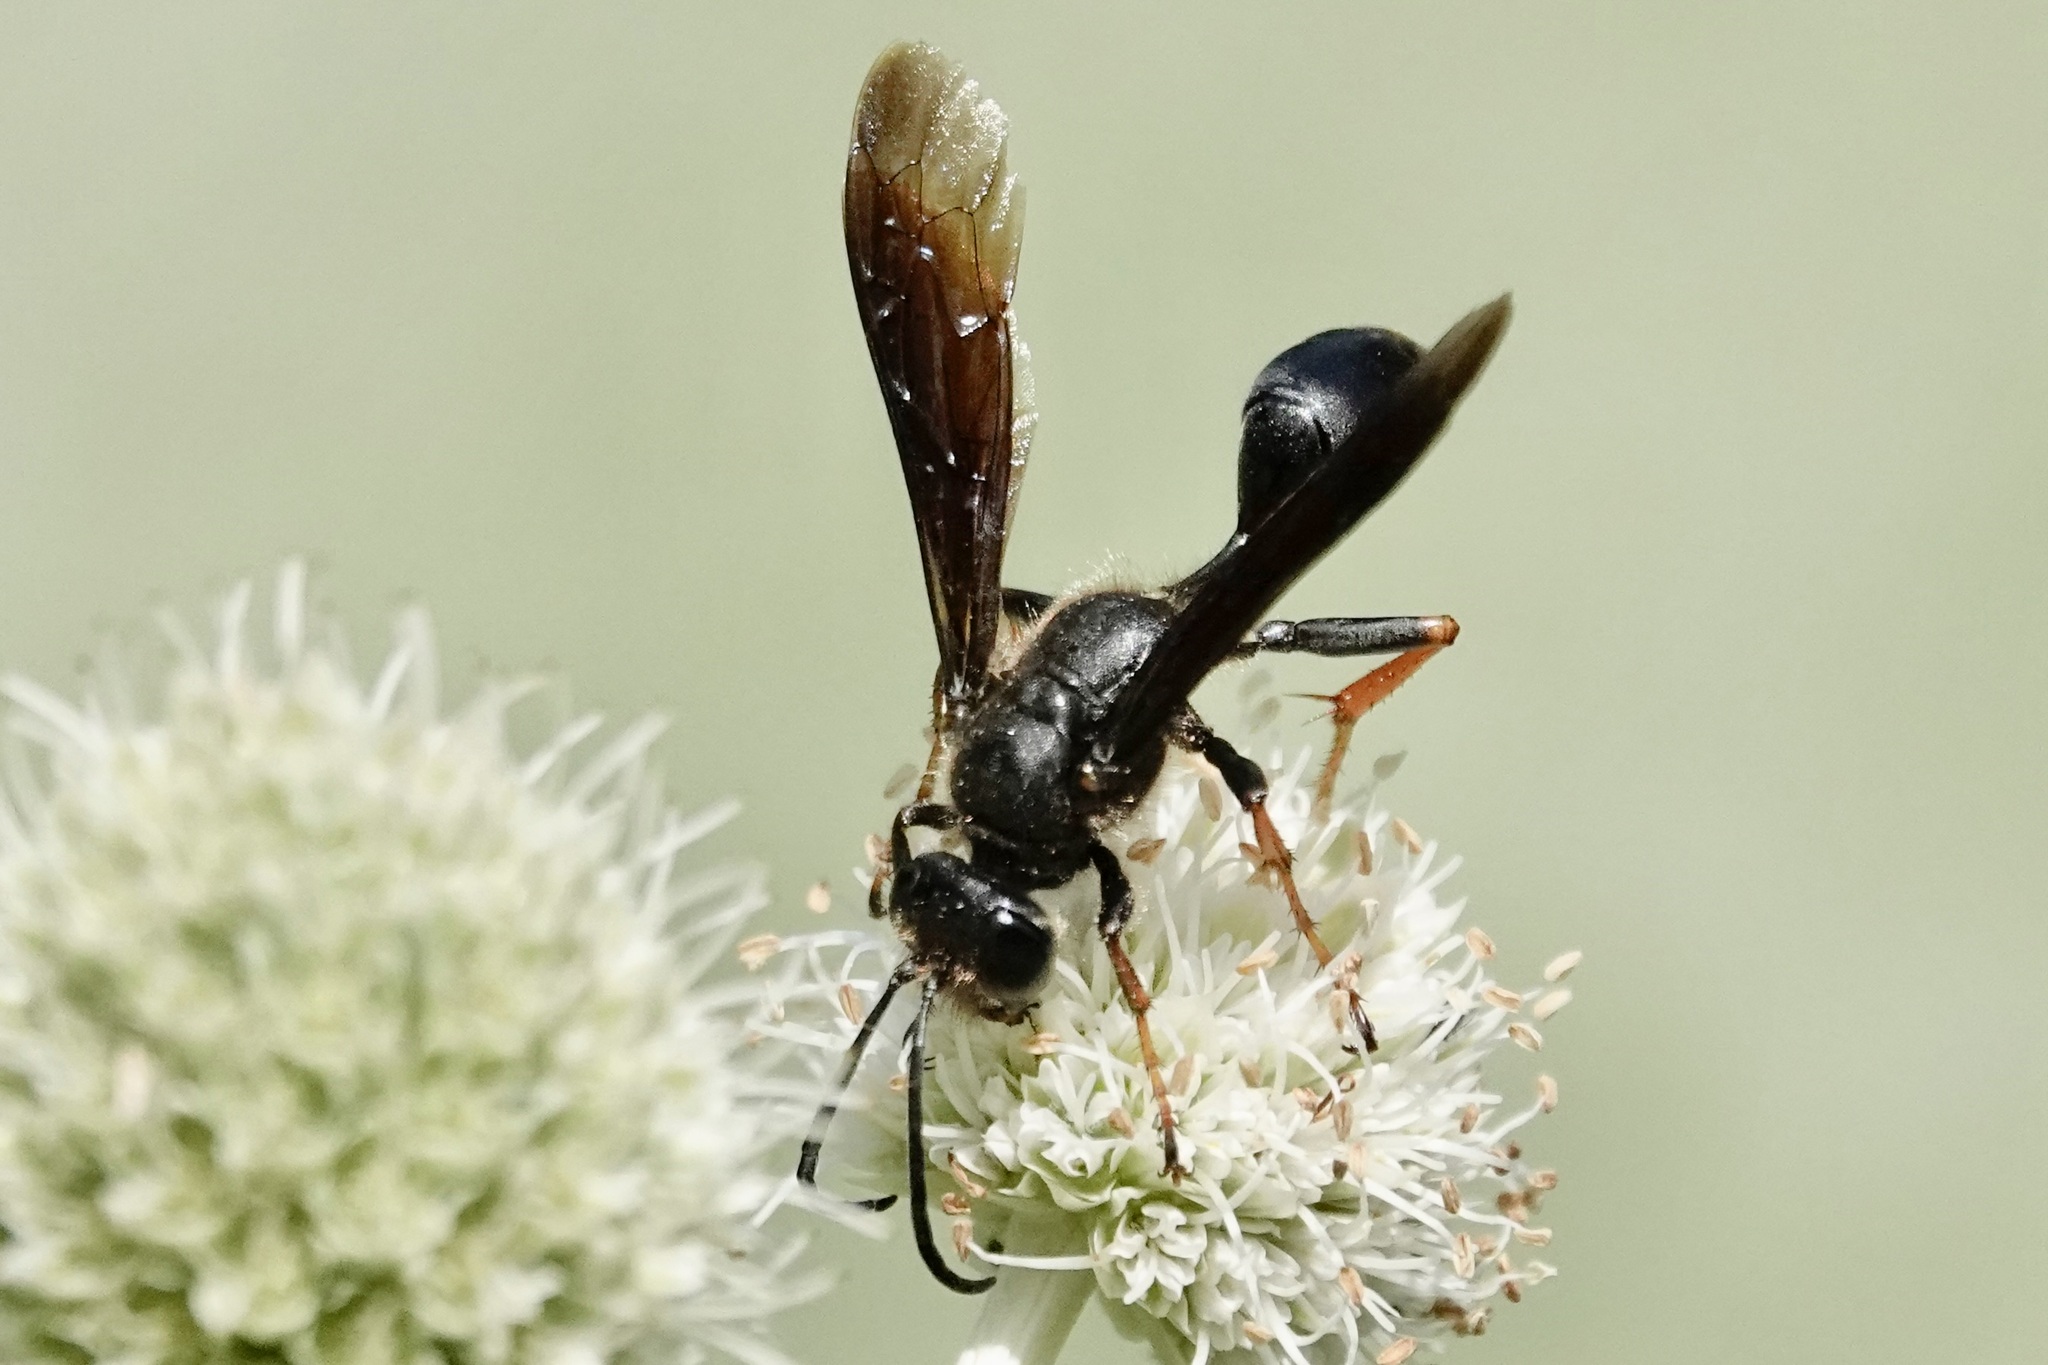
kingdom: Animalia
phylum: Arthropoda
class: Insecta
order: Hymenoptera
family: Sphecidae
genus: Isodontia
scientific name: Isodontia auripes
